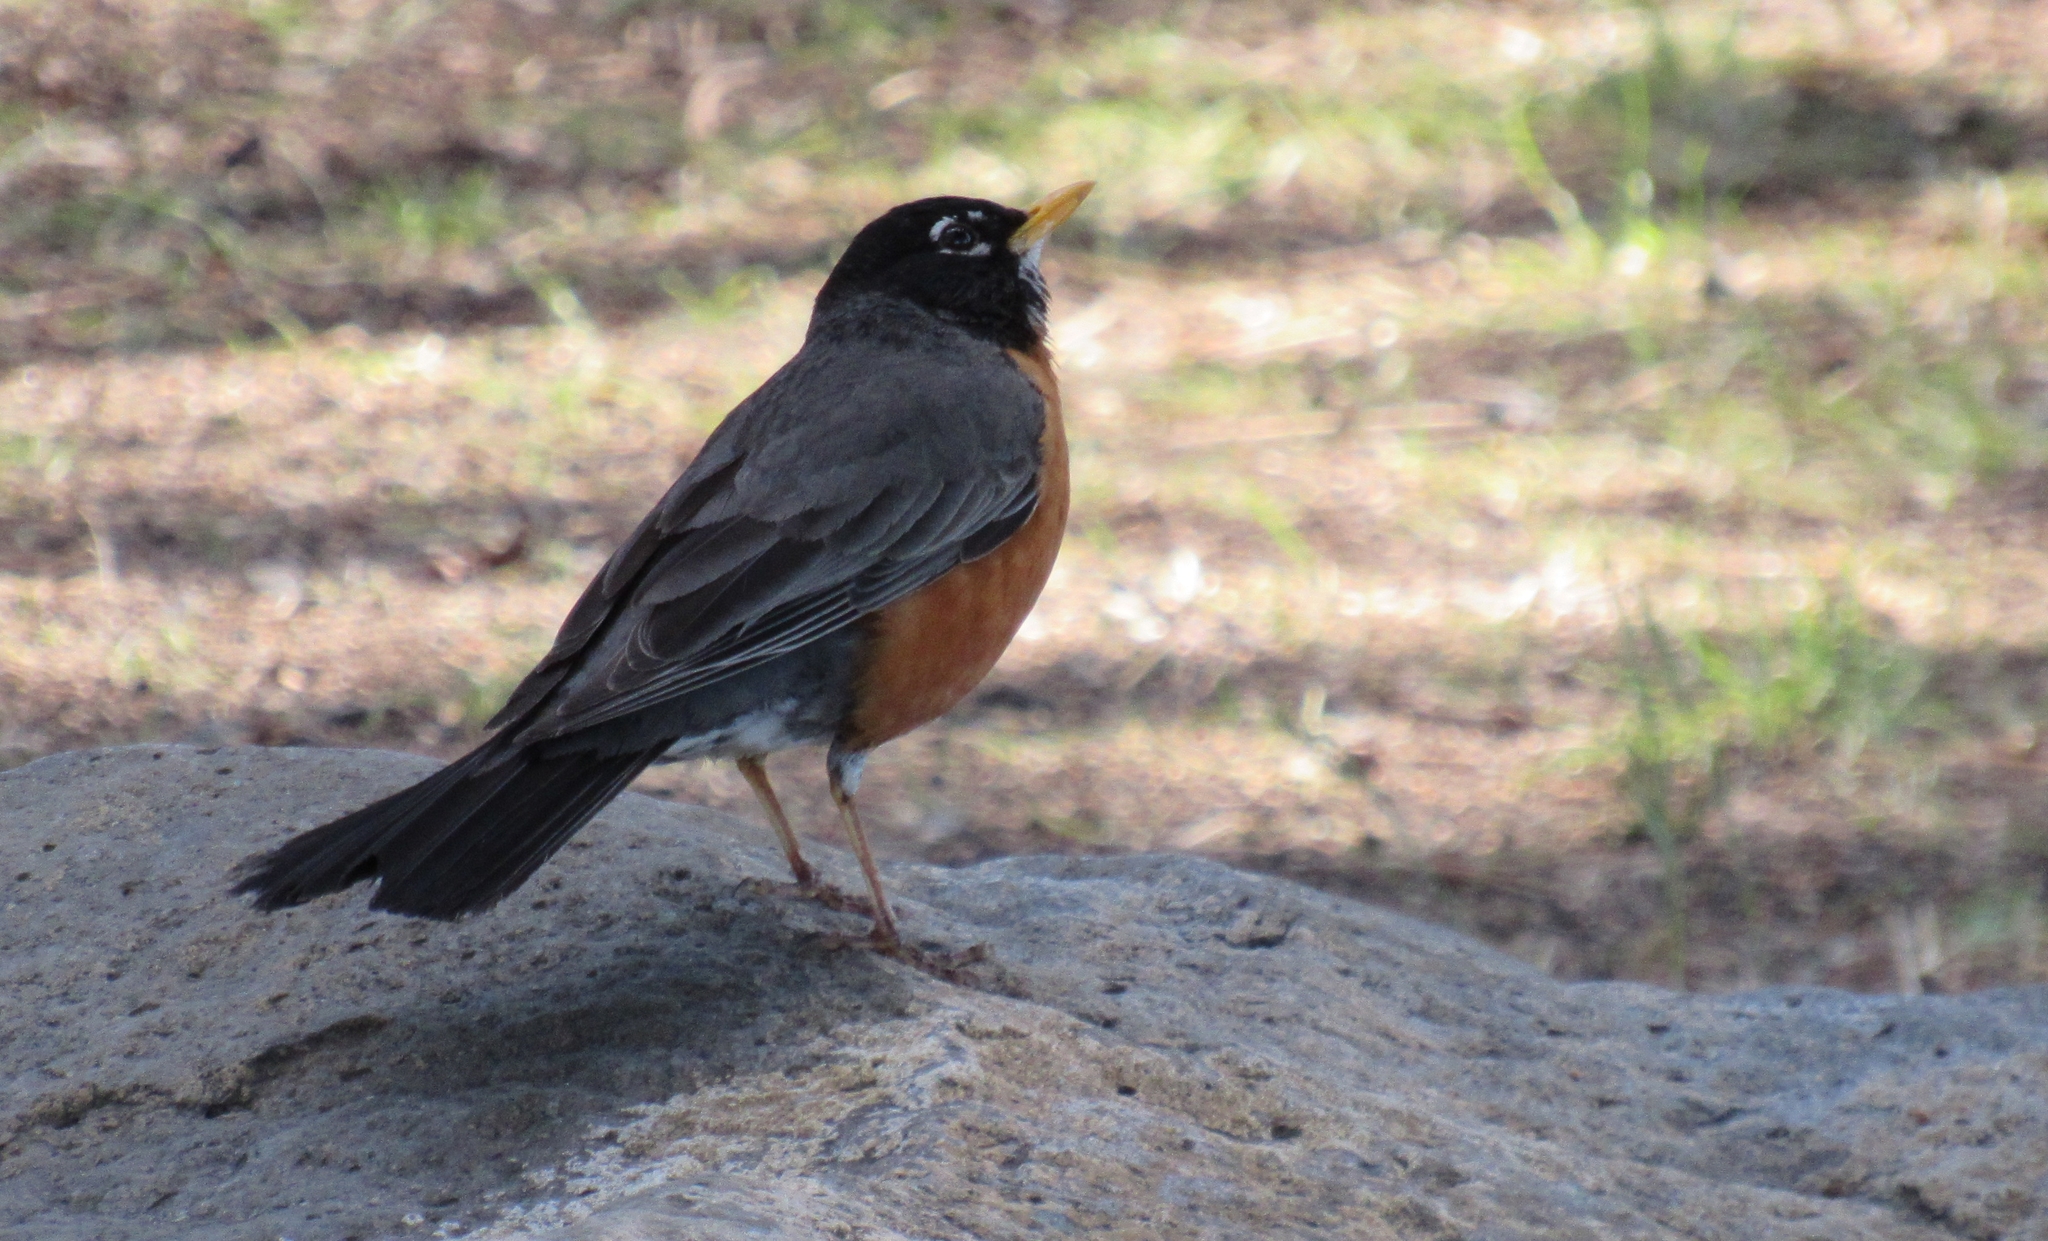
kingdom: Animalia
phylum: Chordata
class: Aves
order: Passeriformes
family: Turdidae
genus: Turdus
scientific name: Turdus migratorius
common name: American robin
